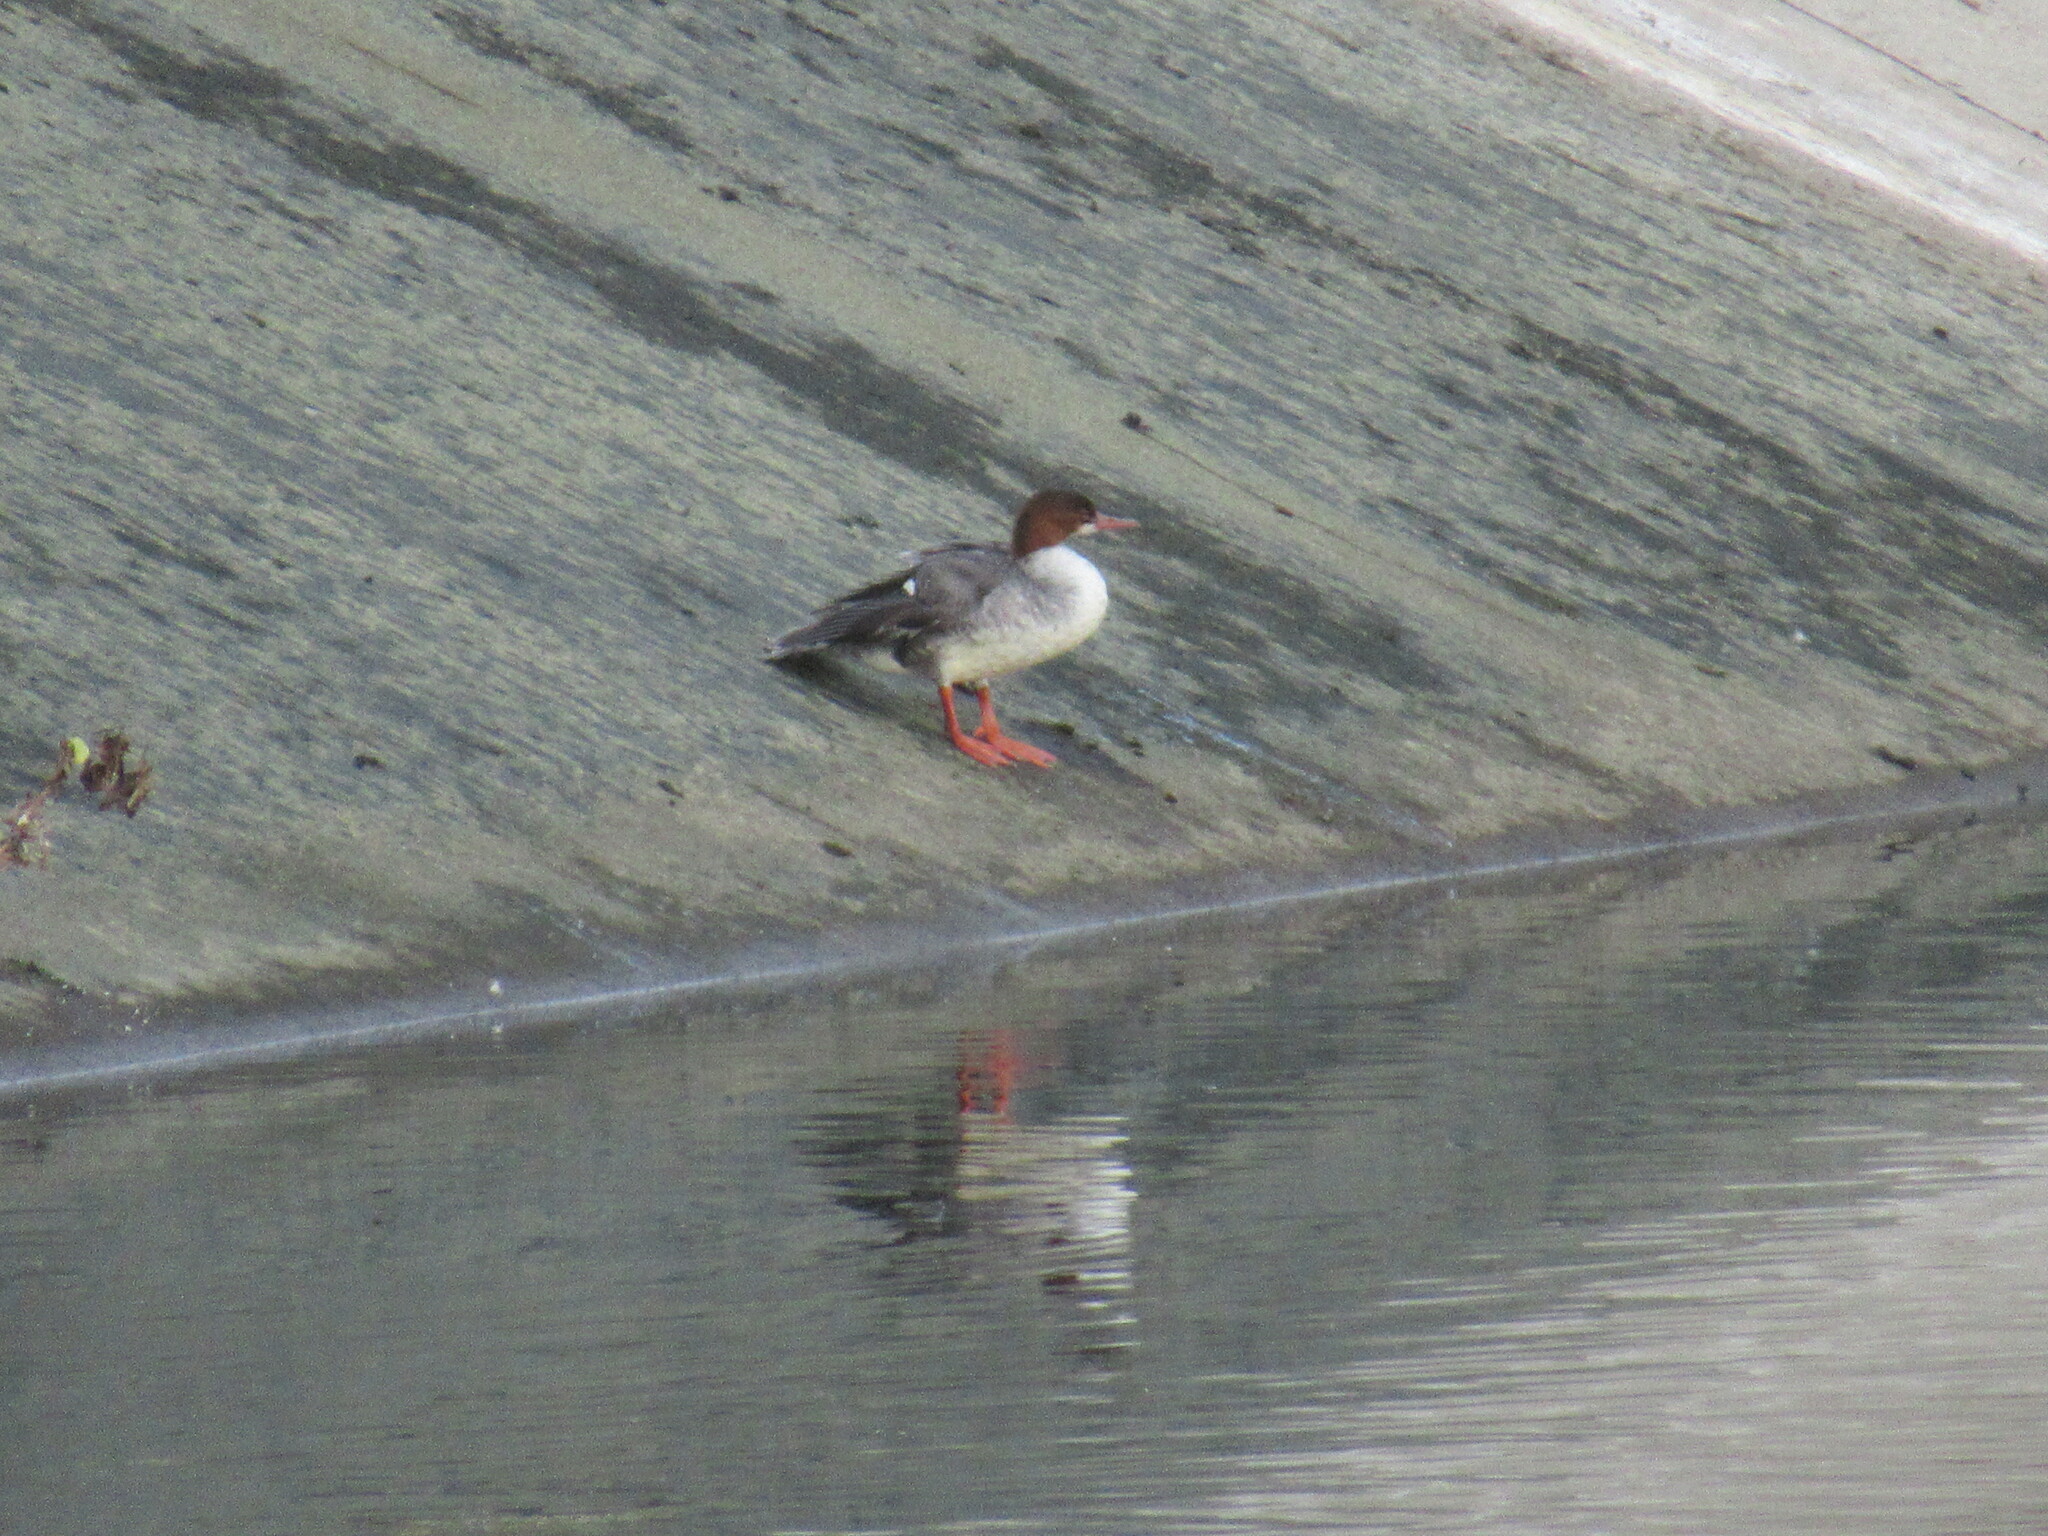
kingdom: Animalia
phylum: Chordata
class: Aves
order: Anseriformes
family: Anatidae
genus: Mergus
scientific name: Mergus merganser
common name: Common merganser
